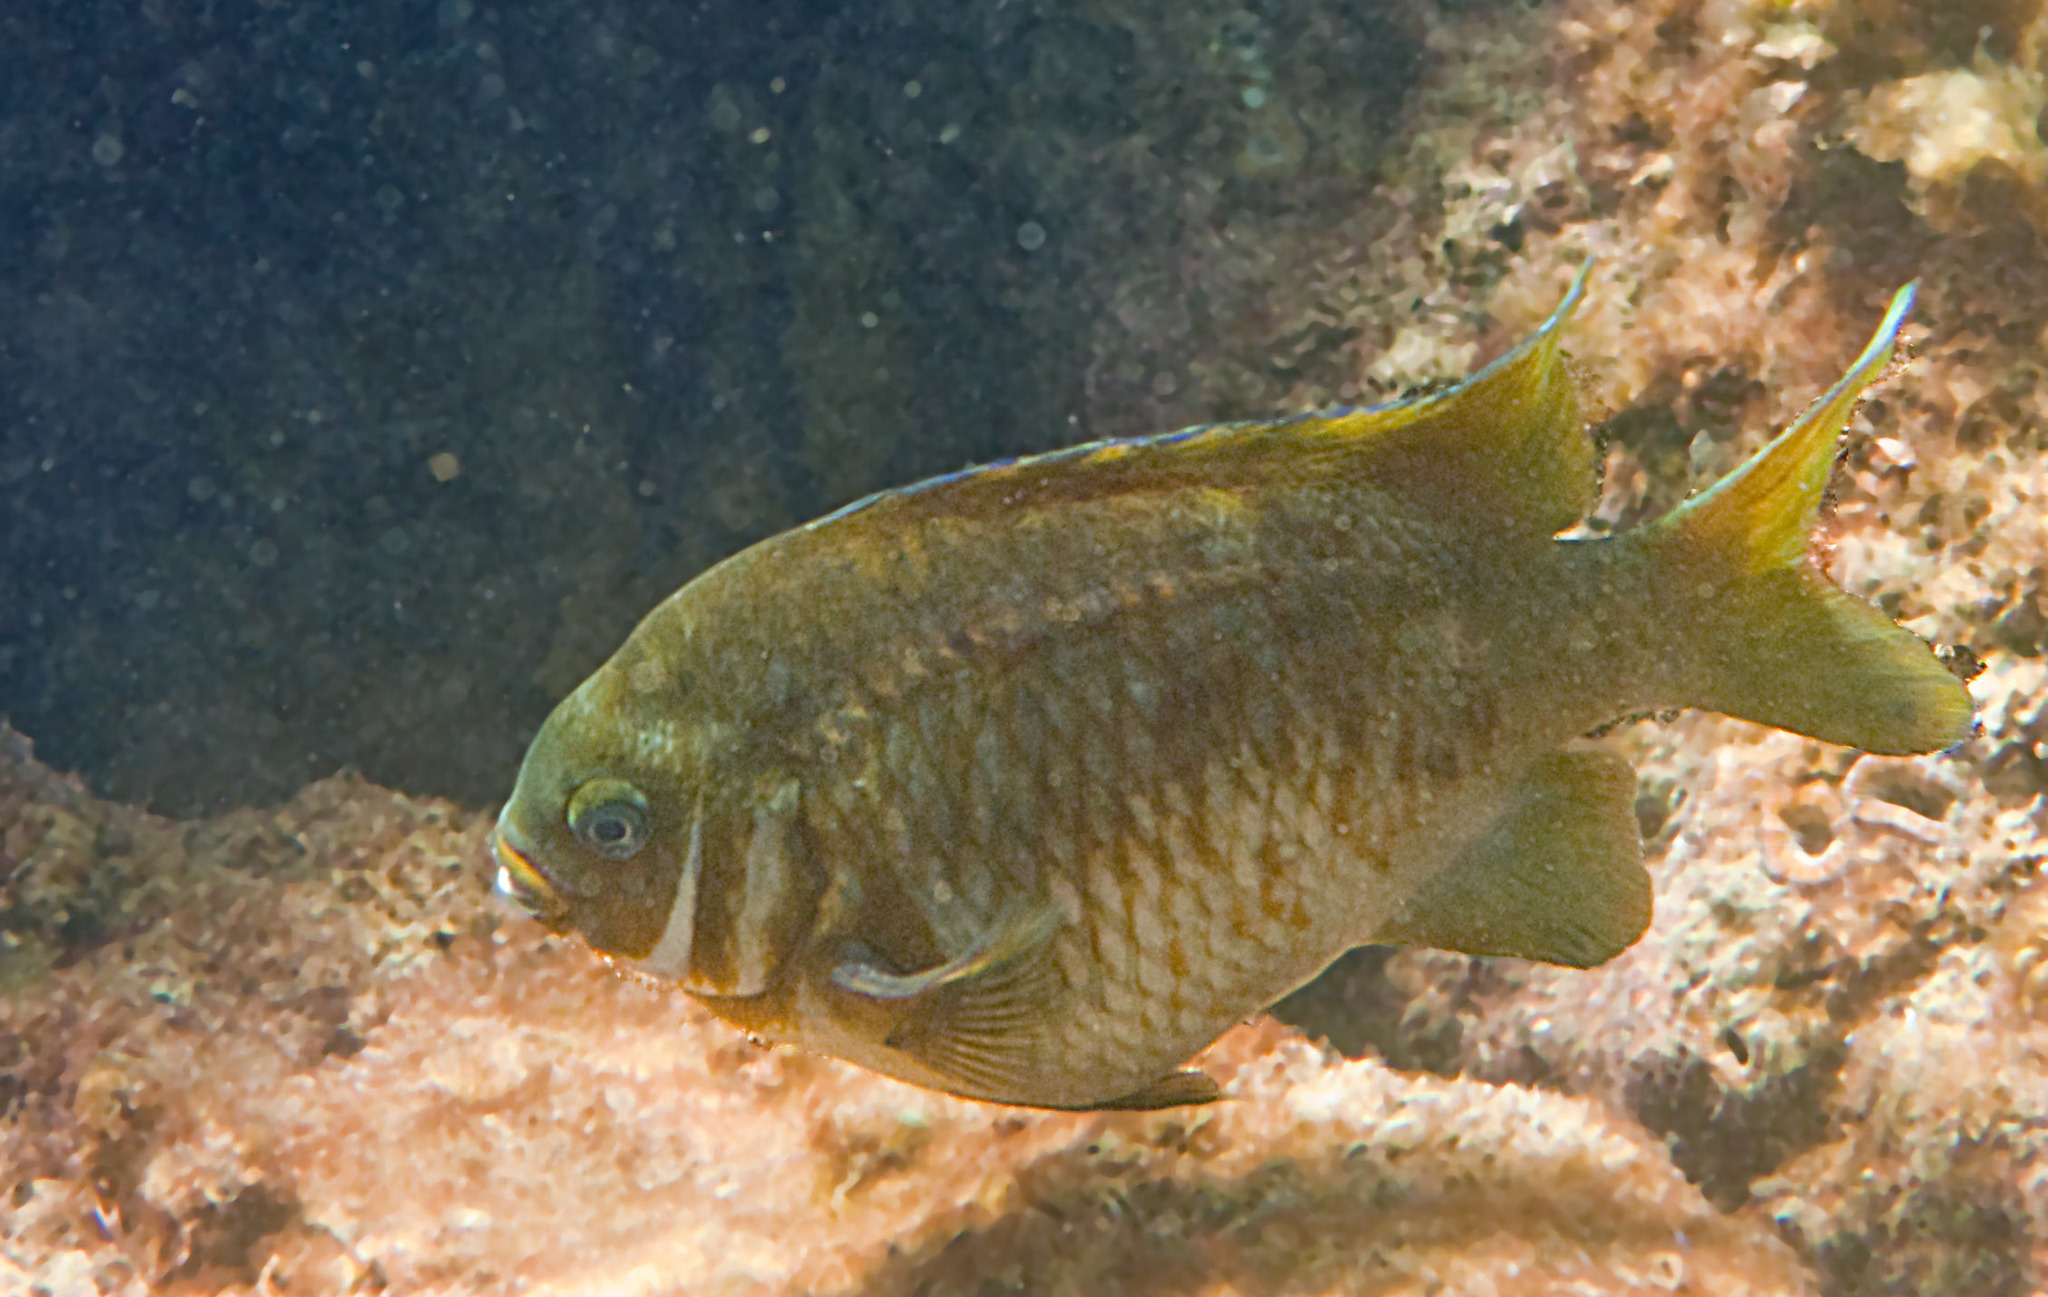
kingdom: Animalia
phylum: Chordata
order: Perciformes
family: Pomacentridae
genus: Parma
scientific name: Parma victoriae
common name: Rock perch
